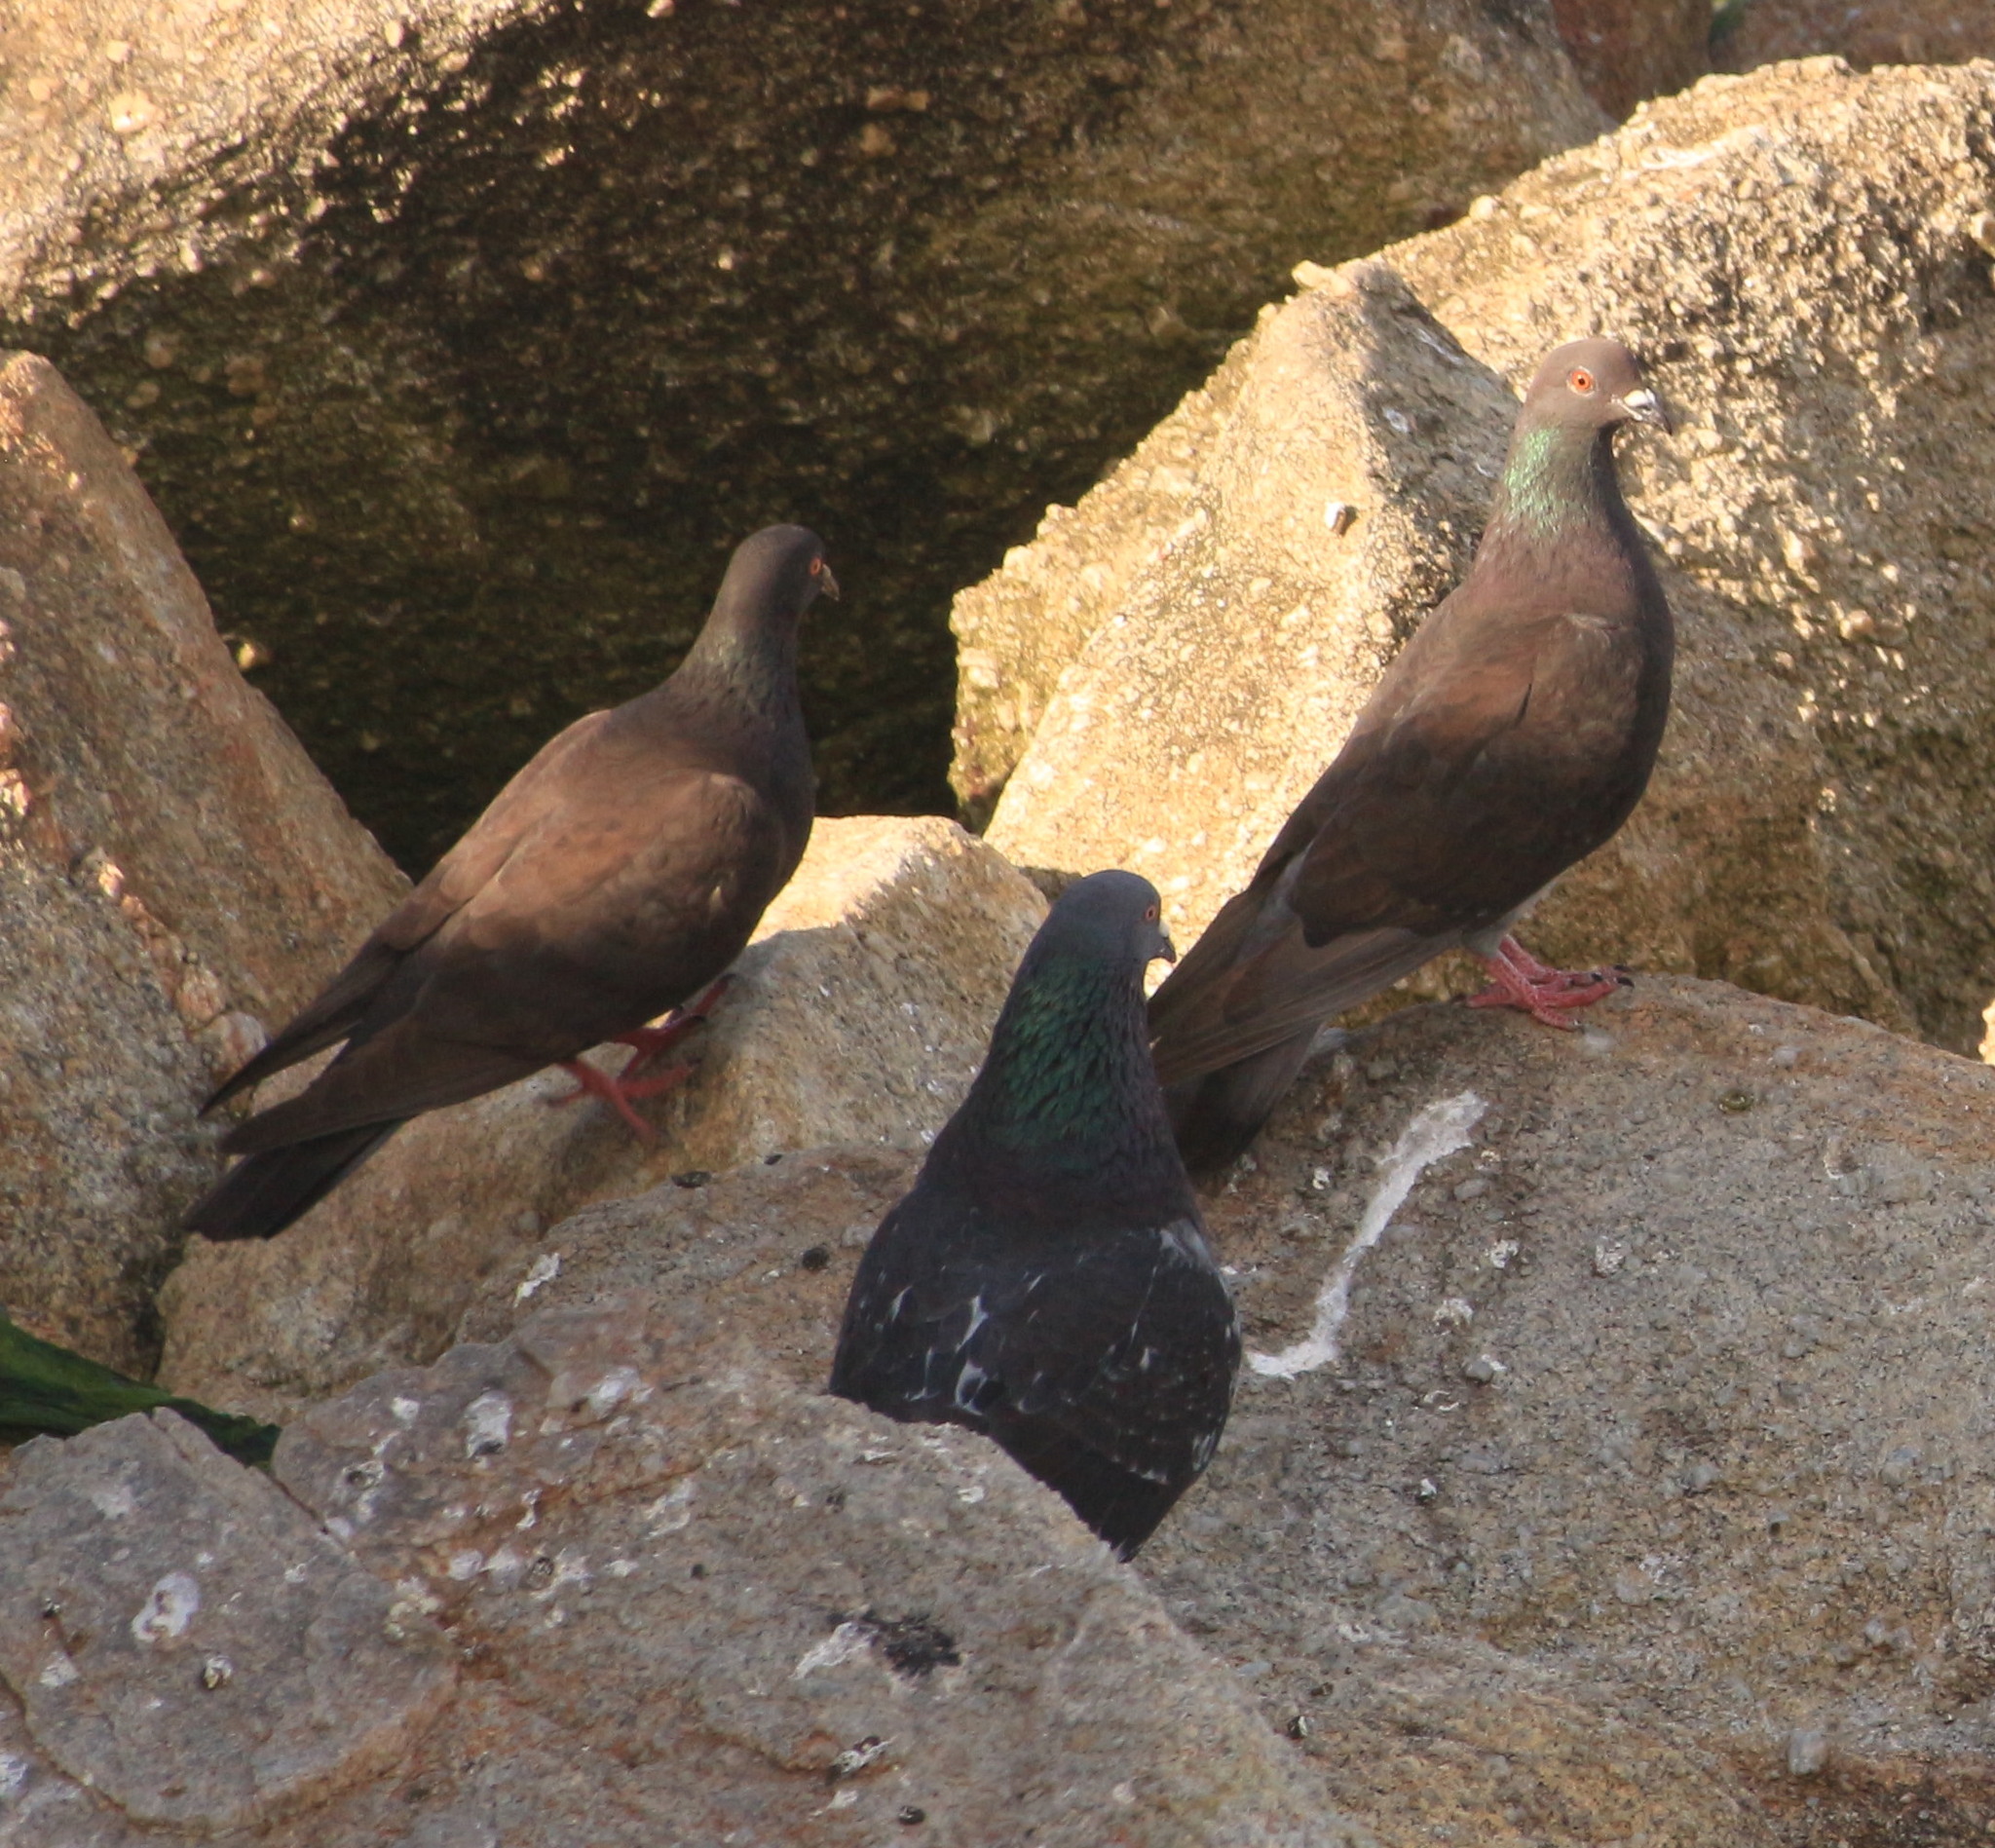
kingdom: Animalia
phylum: Chordata
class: Aves
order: Columbiformes
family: Columbidae
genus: Columba
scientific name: Columba livia
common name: Rock pigeon
